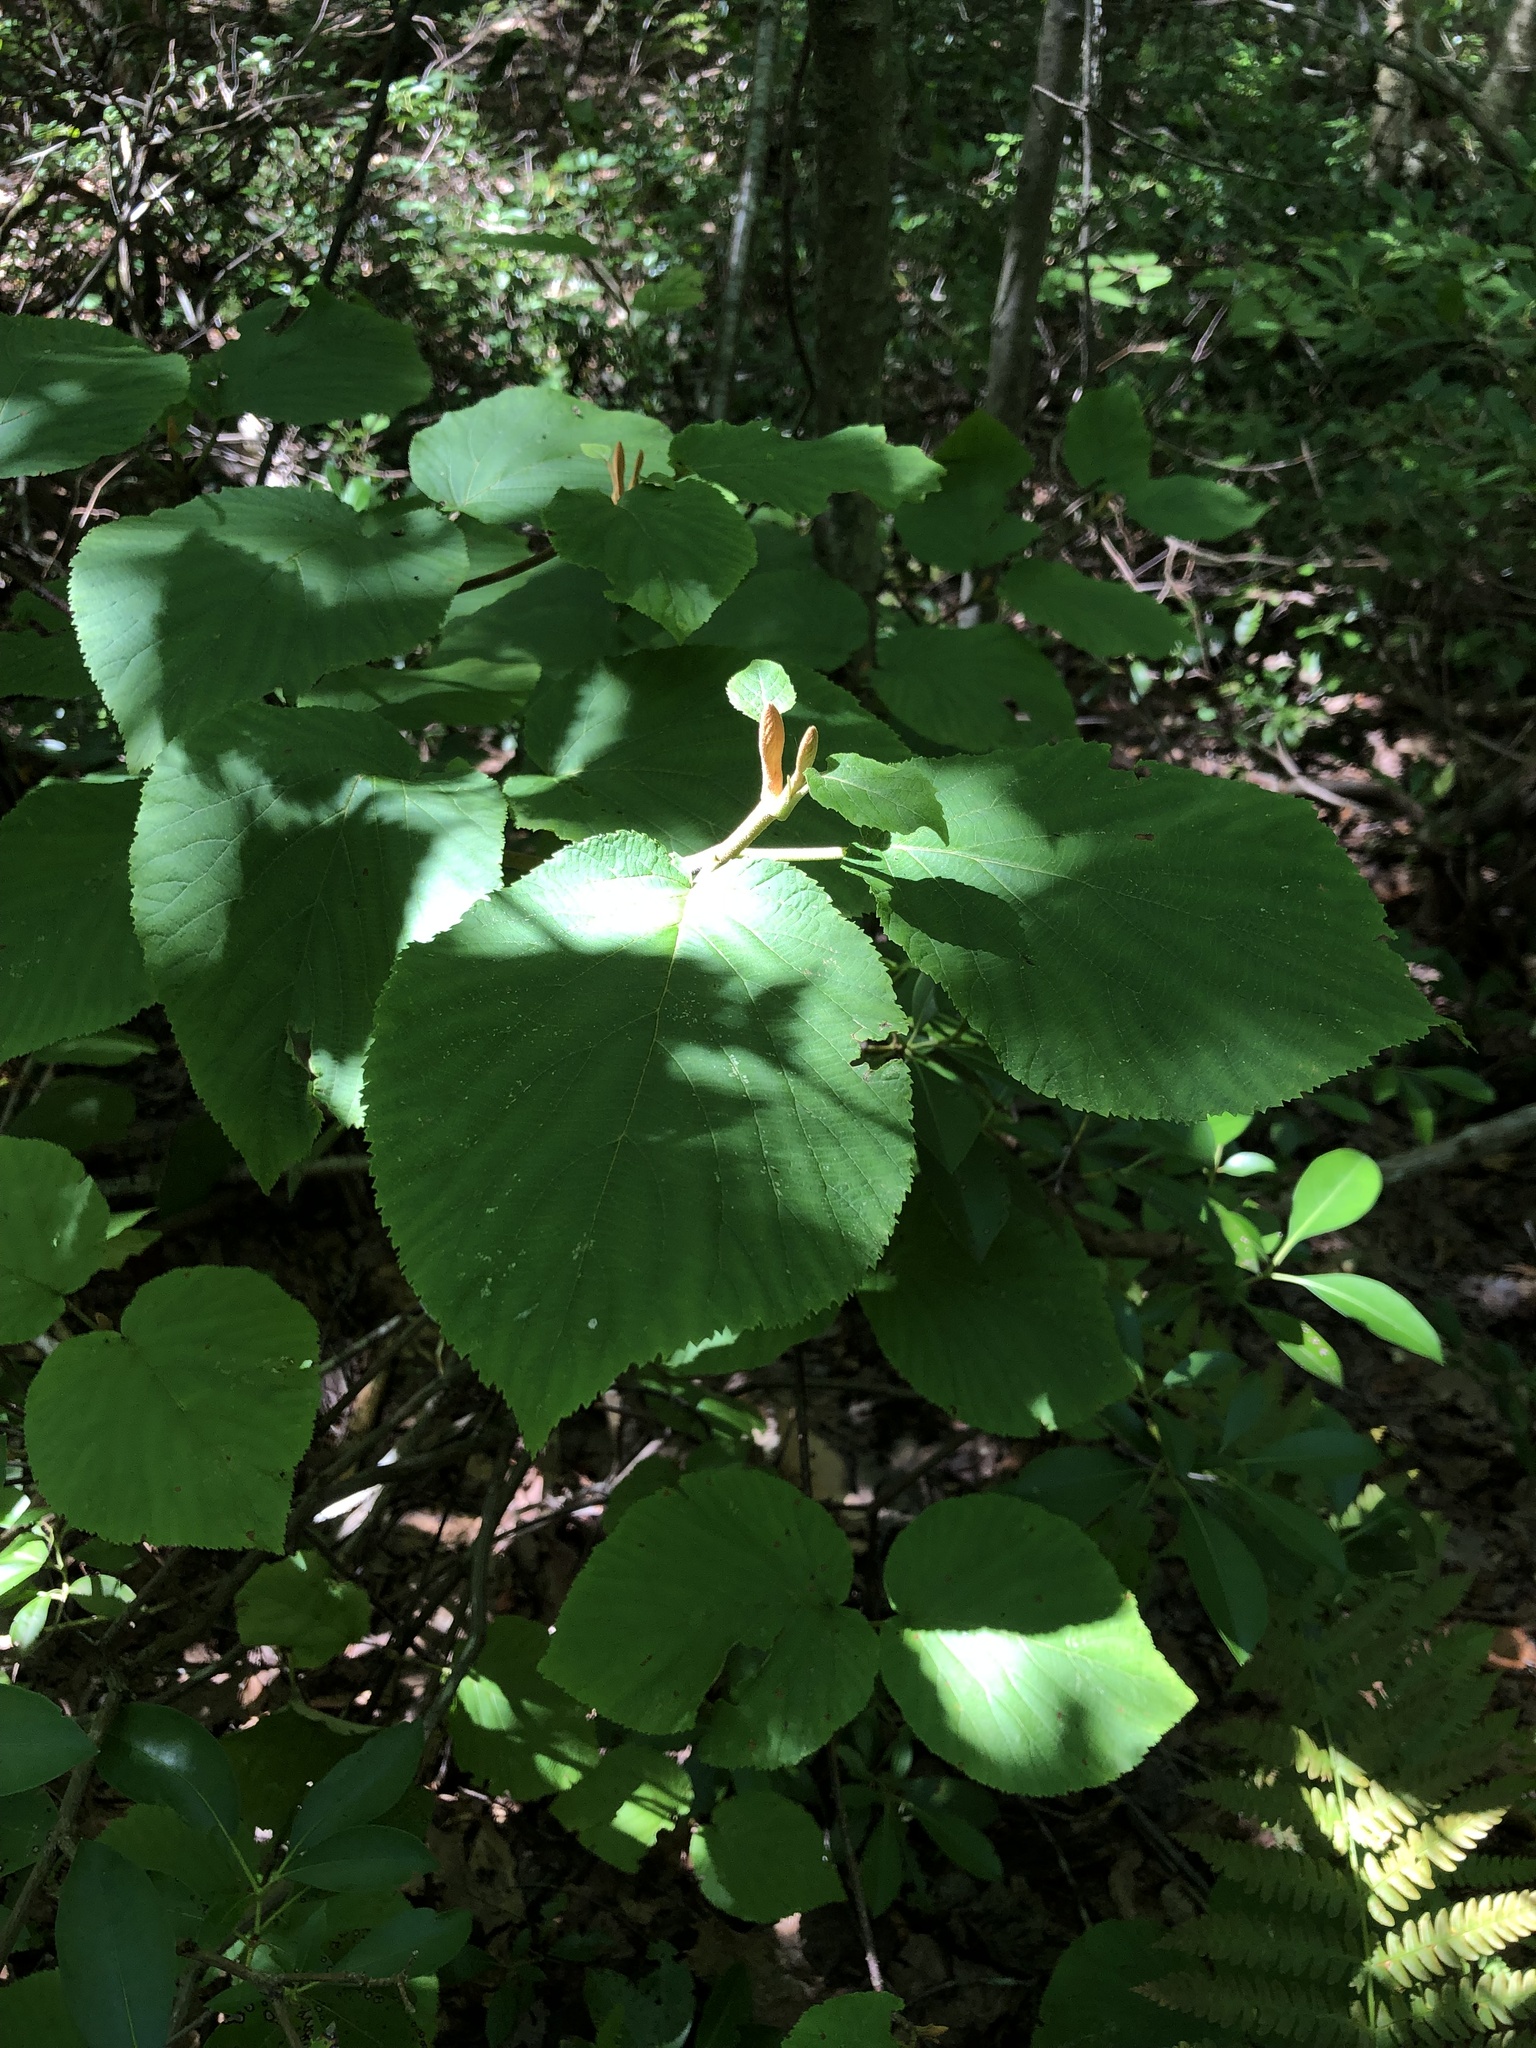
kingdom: Plantae
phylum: Tracheophyta
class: Magnoliopsida
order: Dipsacales
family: Viburnaceae
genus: Viburnum
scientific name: Viburnum lantanoides
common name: Hobblebush
